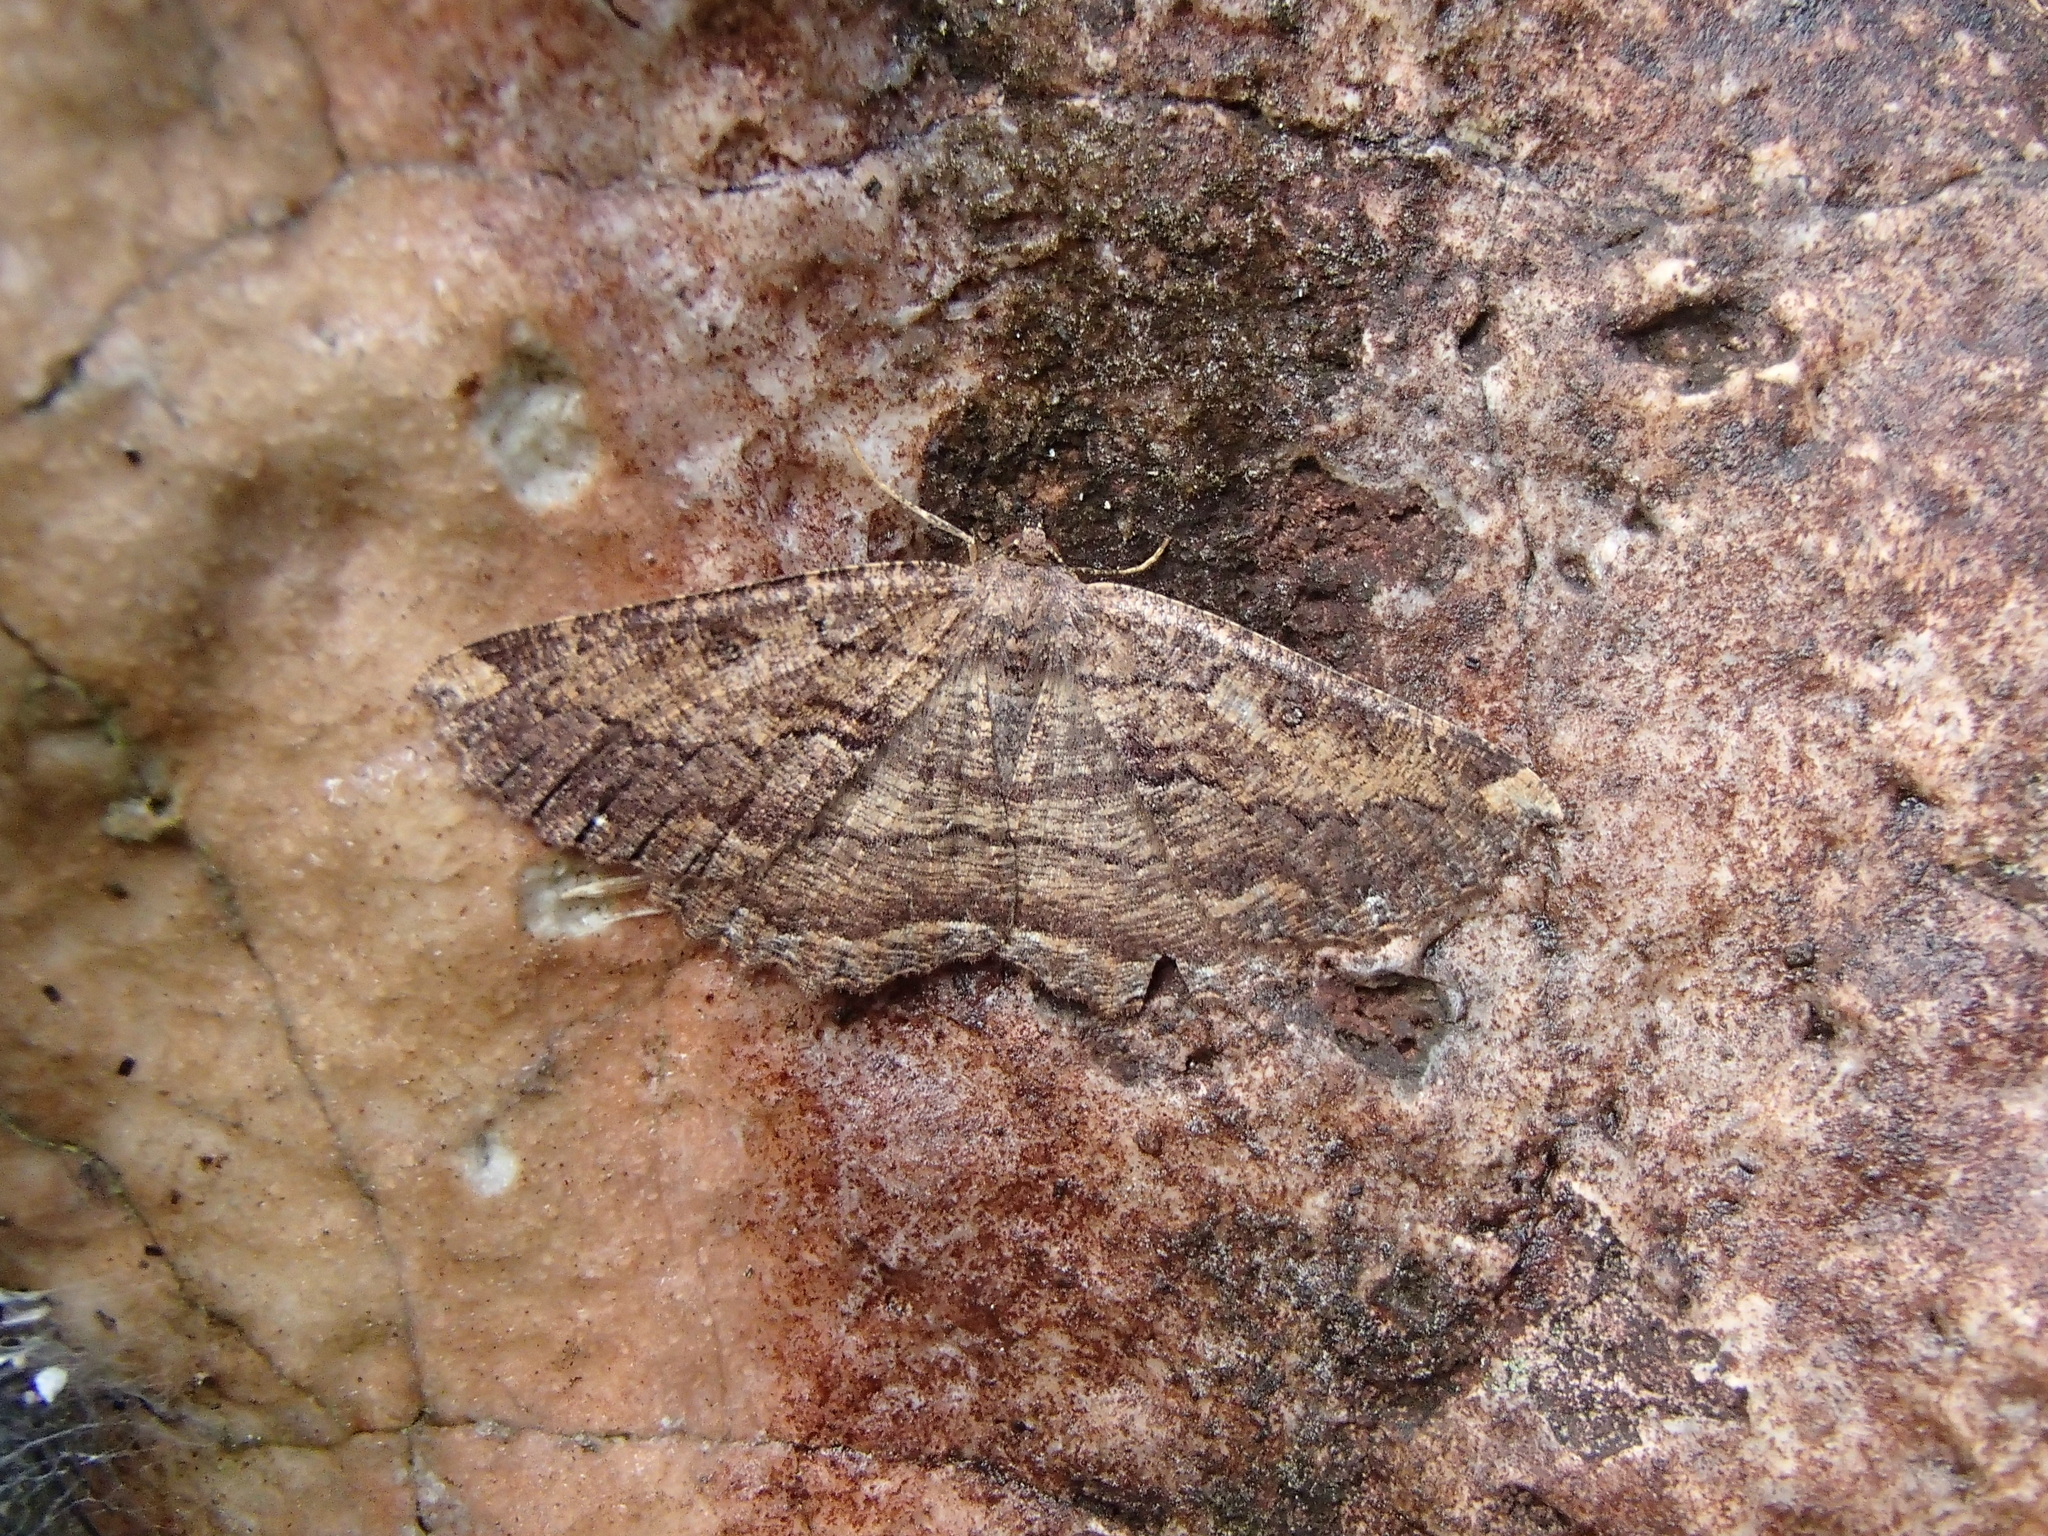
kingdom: Animalia
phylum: Arthropoda
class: Insecta
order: Lepidoptera
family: Geometridae
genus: Gellonia
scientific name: Gellonia dejectaria
